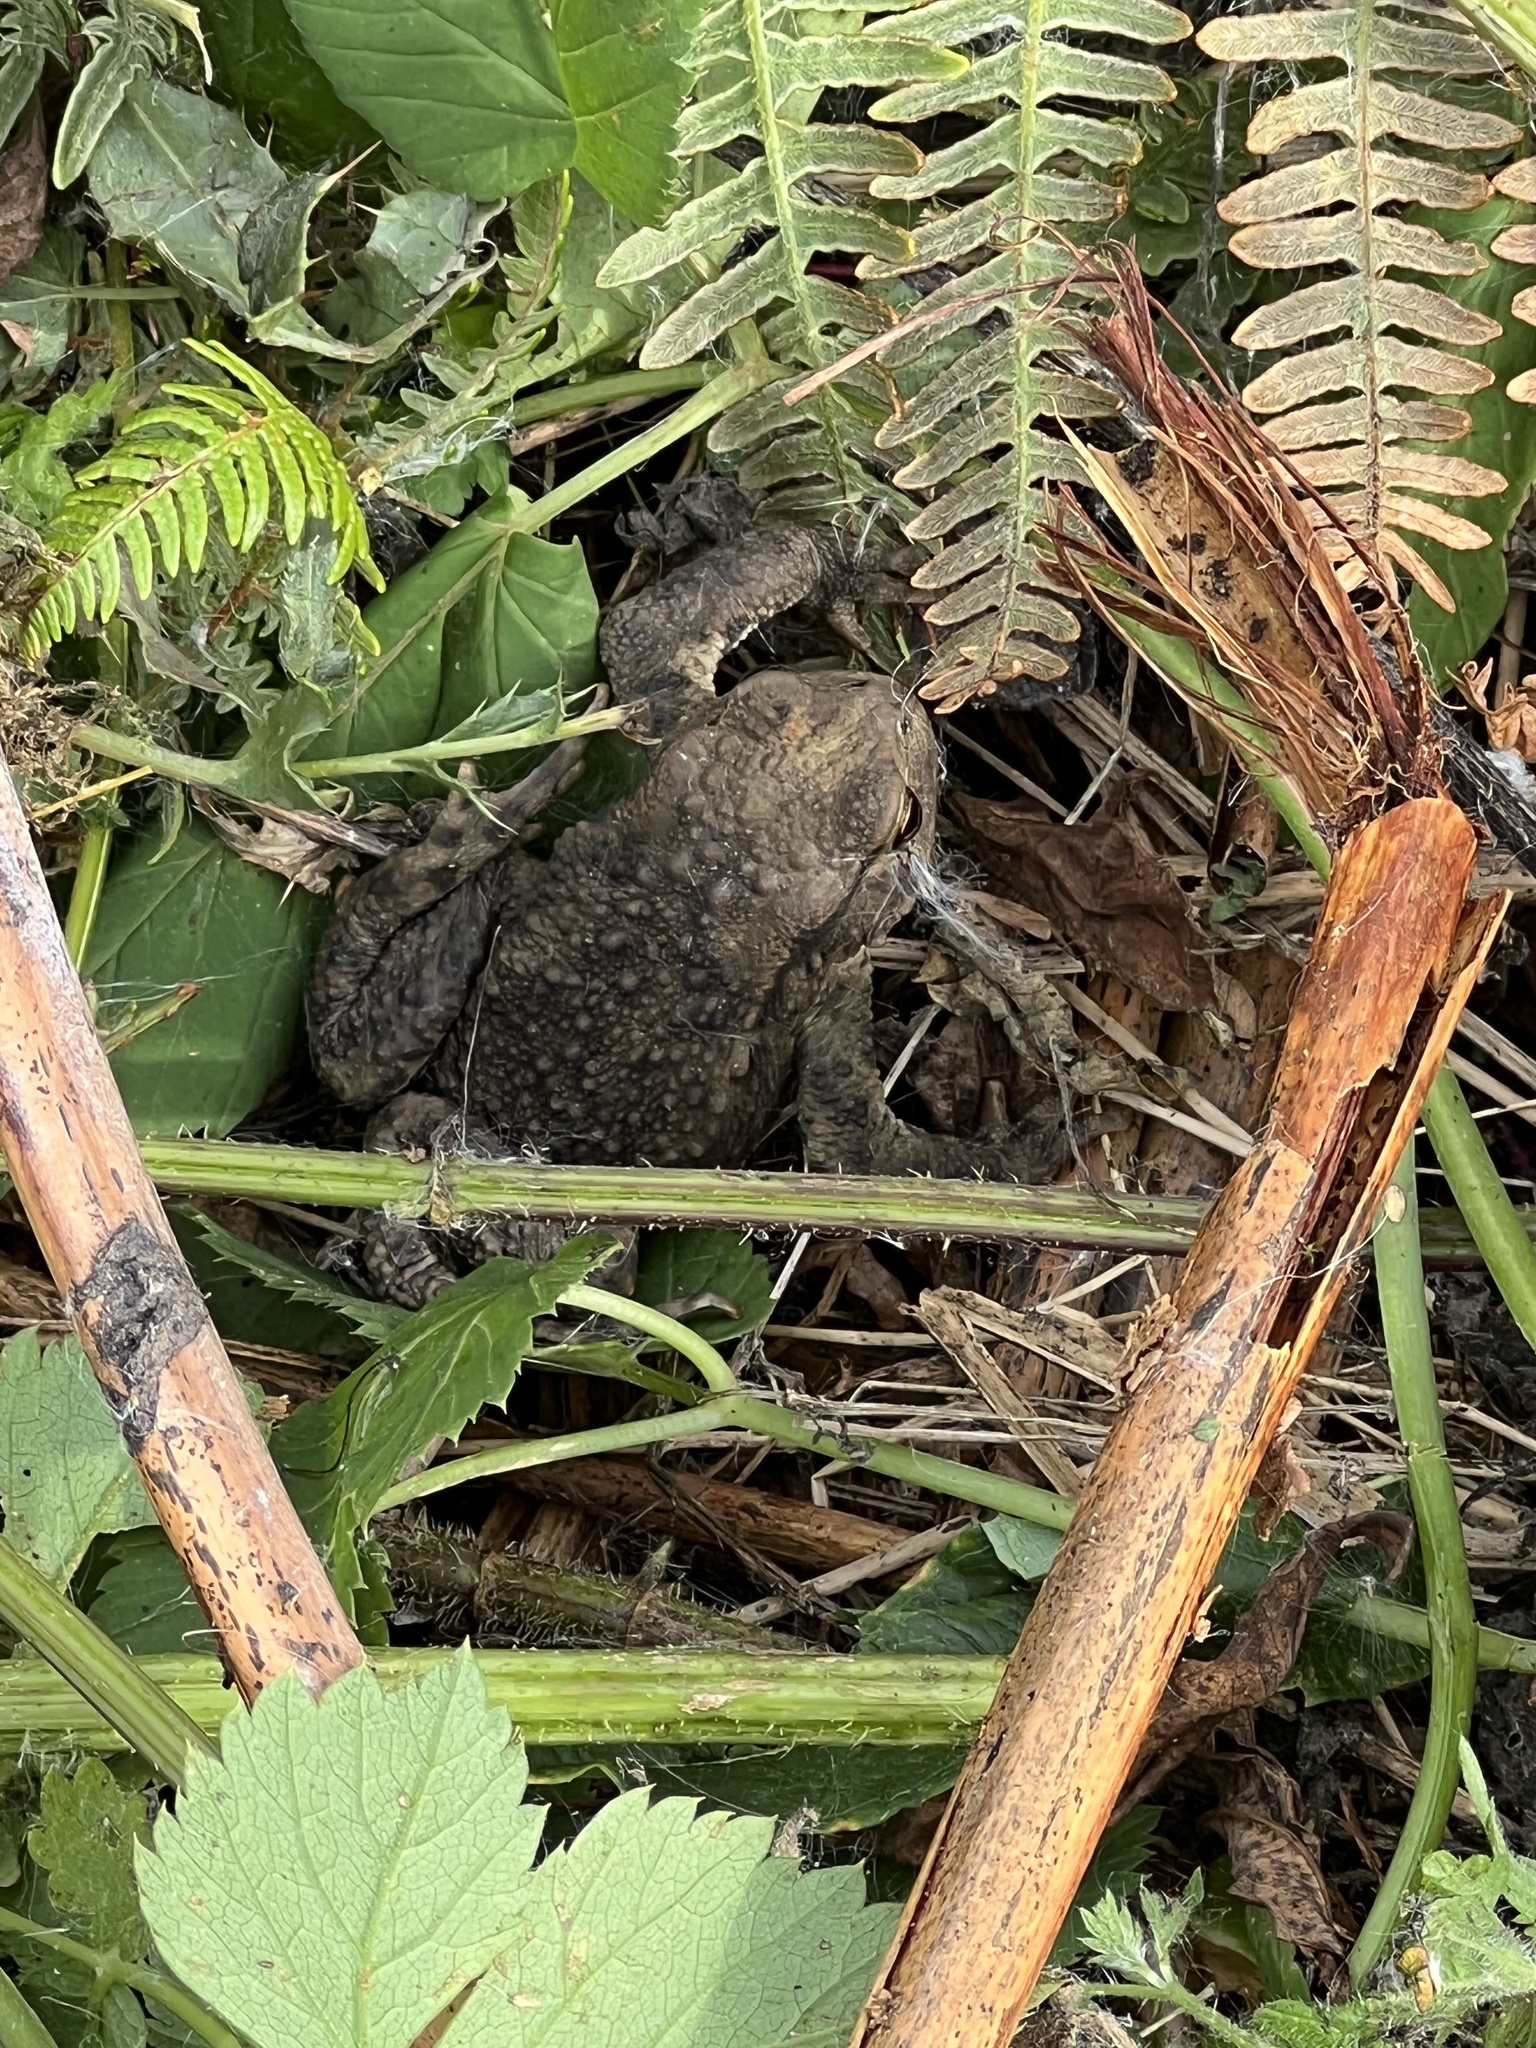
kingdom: Animalia
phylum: Chordata
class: Amphibia
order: Anura
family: Bufonidae
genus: Bufo
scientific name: Bufo bufo
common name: Common toad
